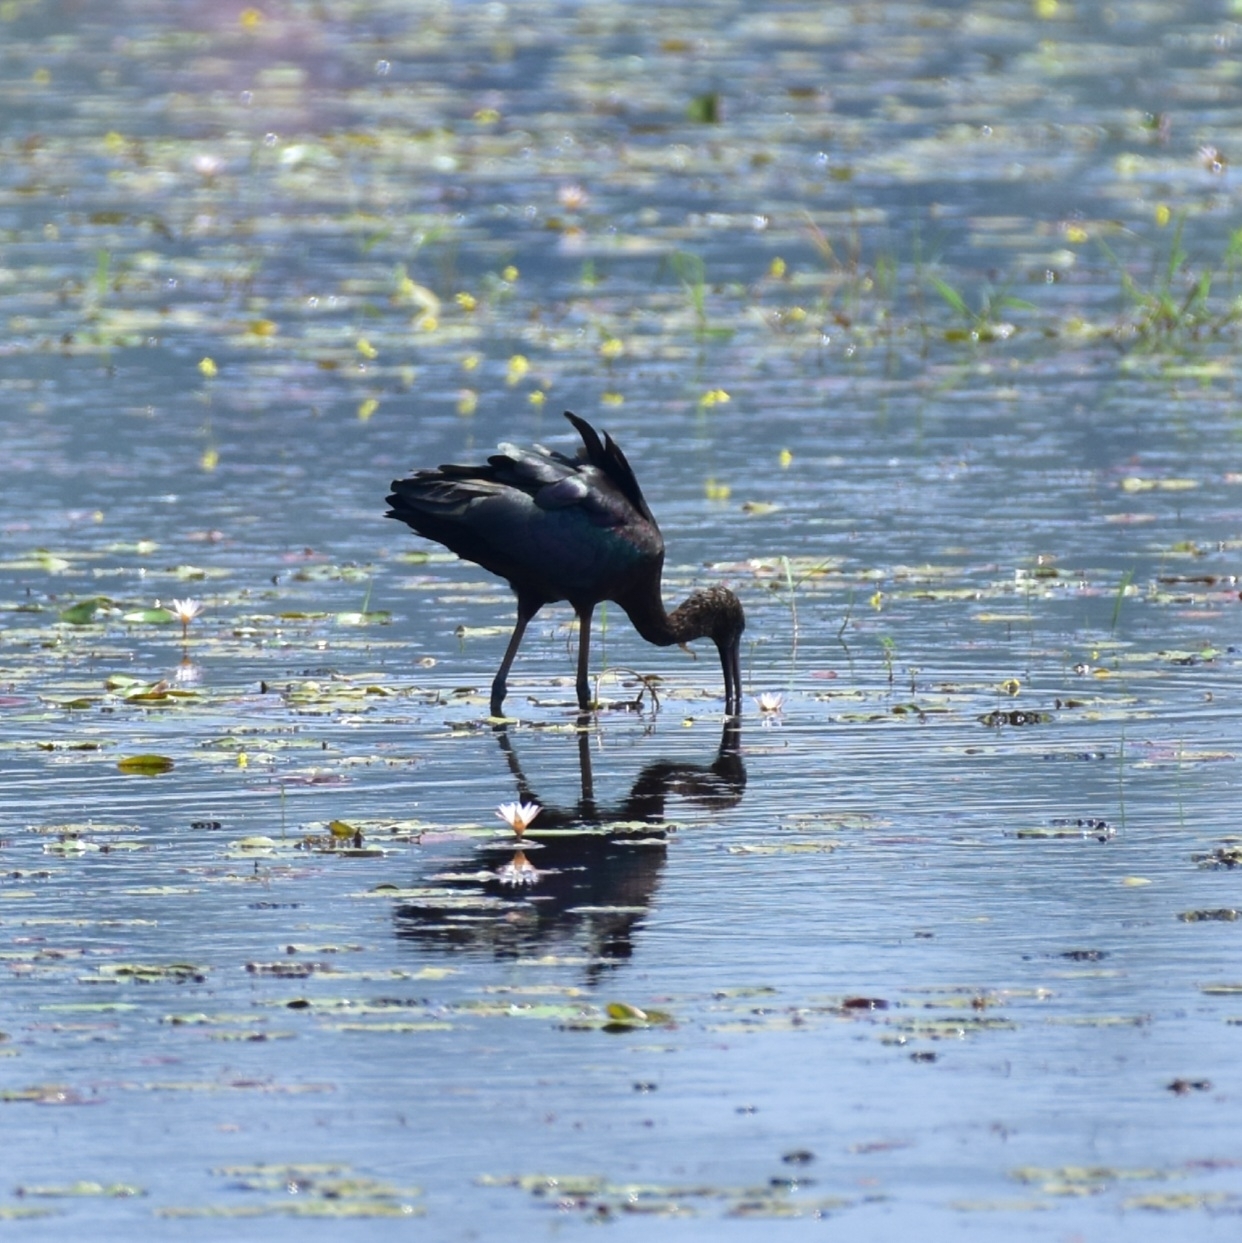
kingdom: Animalia
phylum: Chordata
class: Aves
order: Pelecaniformes
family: Threskiornithidae
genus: Plegadis
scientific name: Plegadis falcinellus
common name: Glossy ibis
